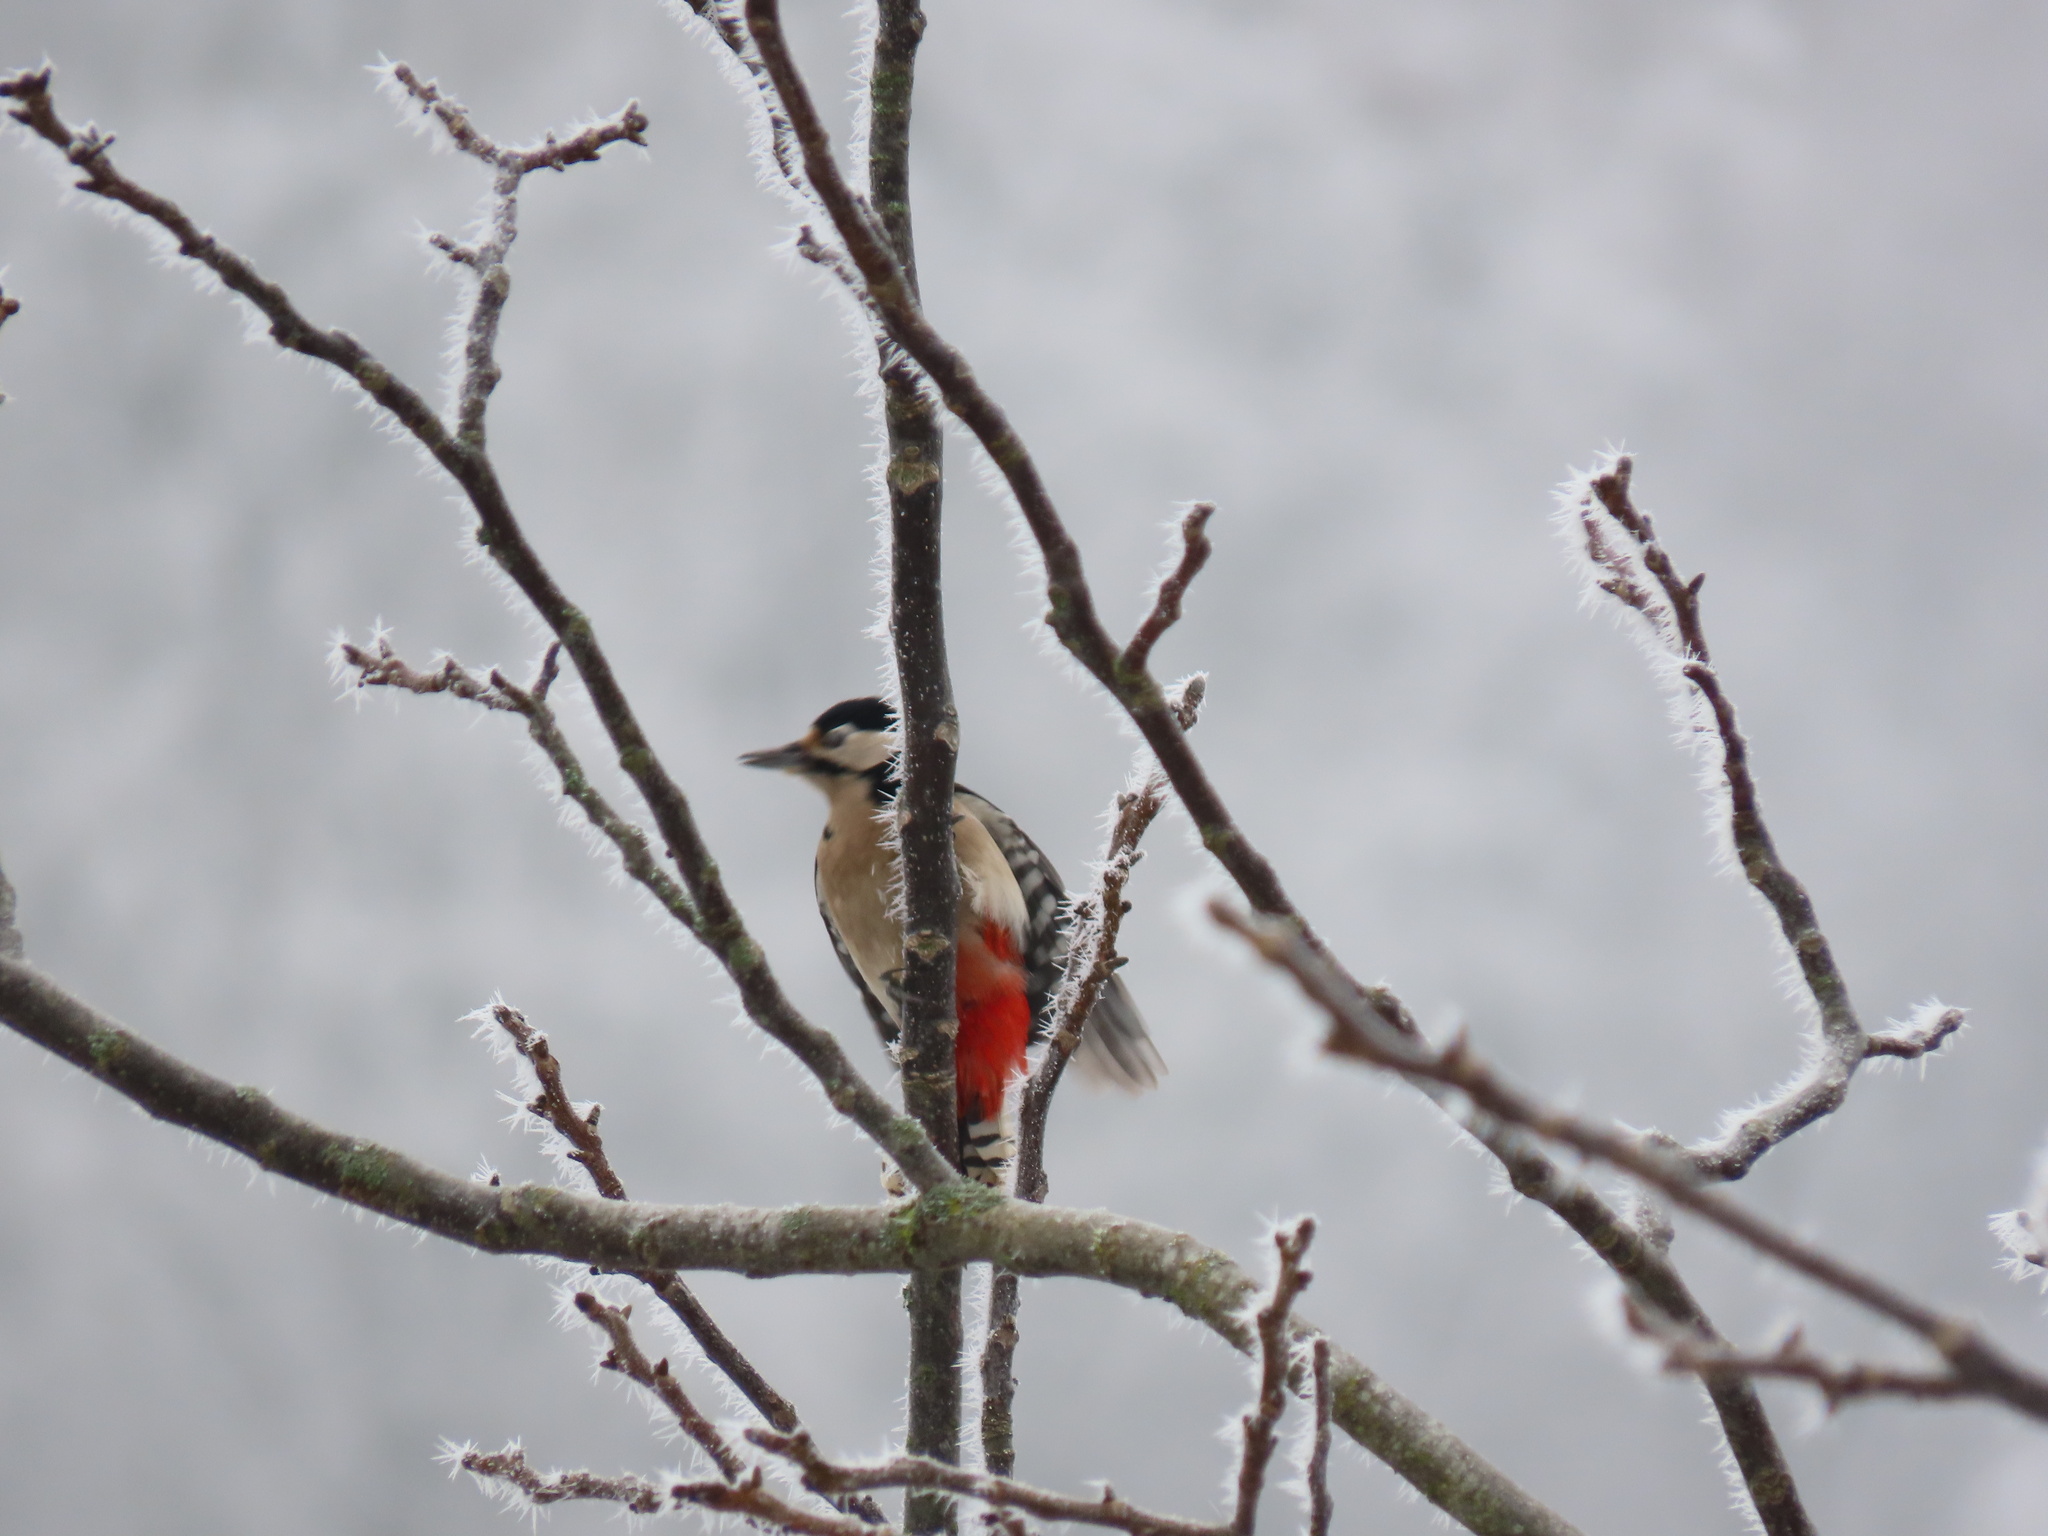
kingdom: Animalia
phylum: Chordata
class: Aves
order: Piciformes
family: Picidae
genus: Dendrocopos
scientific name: Dendrocopos major
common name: Great spotted woodpecker
